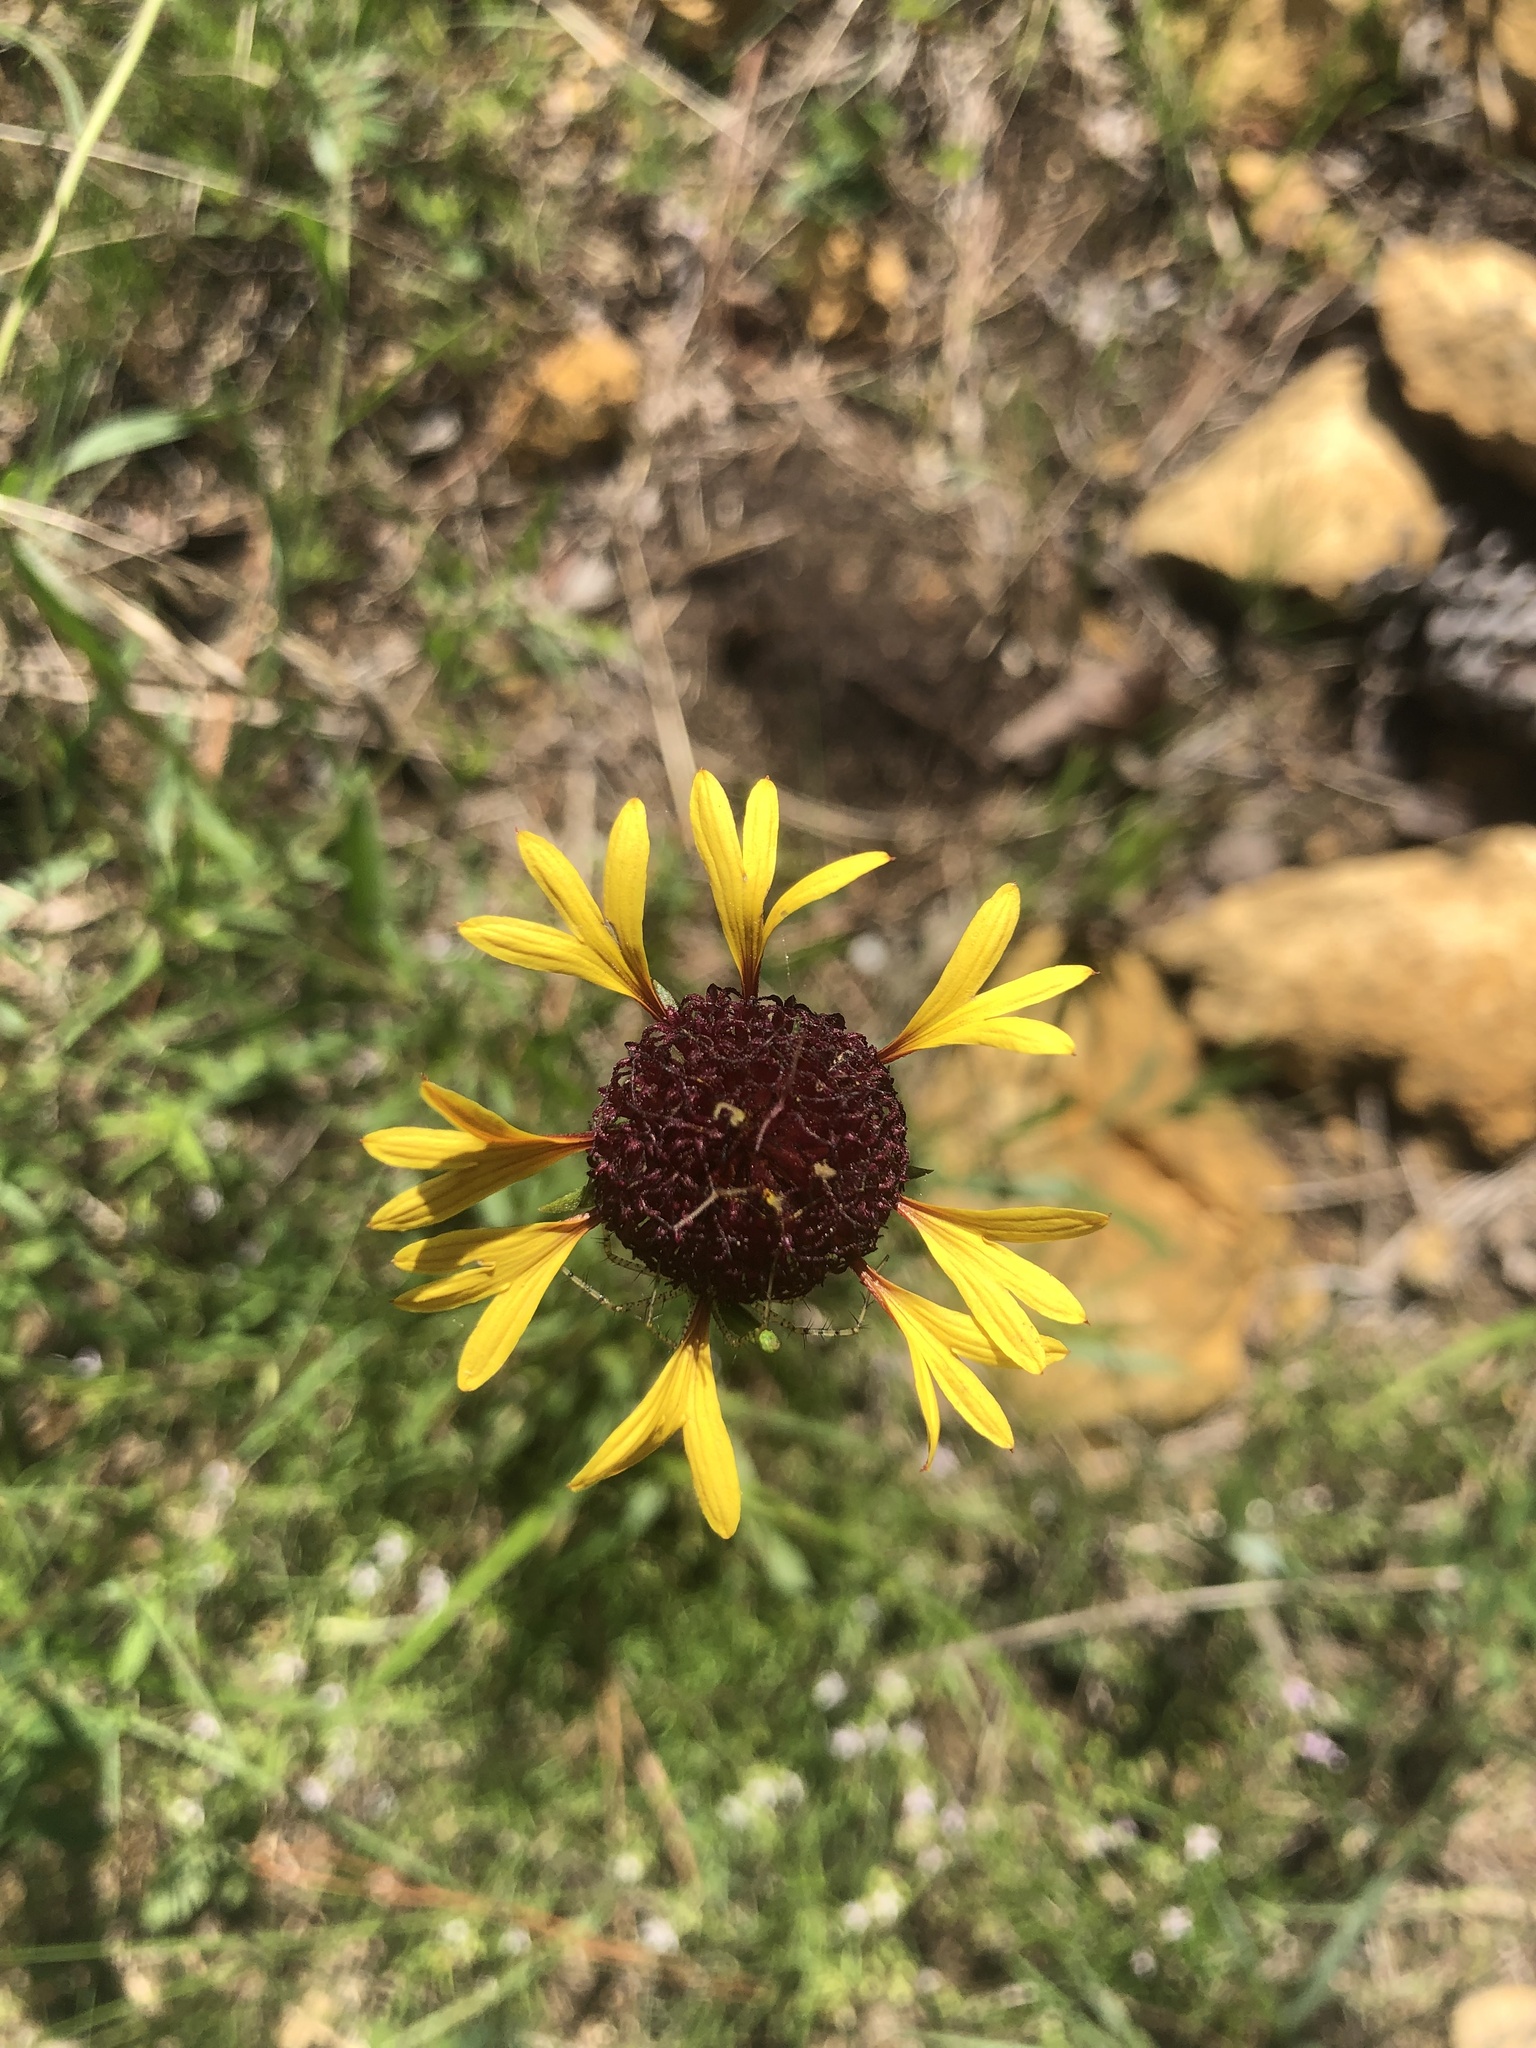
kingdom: Plantae
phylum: Tracheophyta
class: Magnoliopsida
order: Asterales
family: Asteraceae
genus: Gaillardia
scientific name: Gaillardia aestivalis
